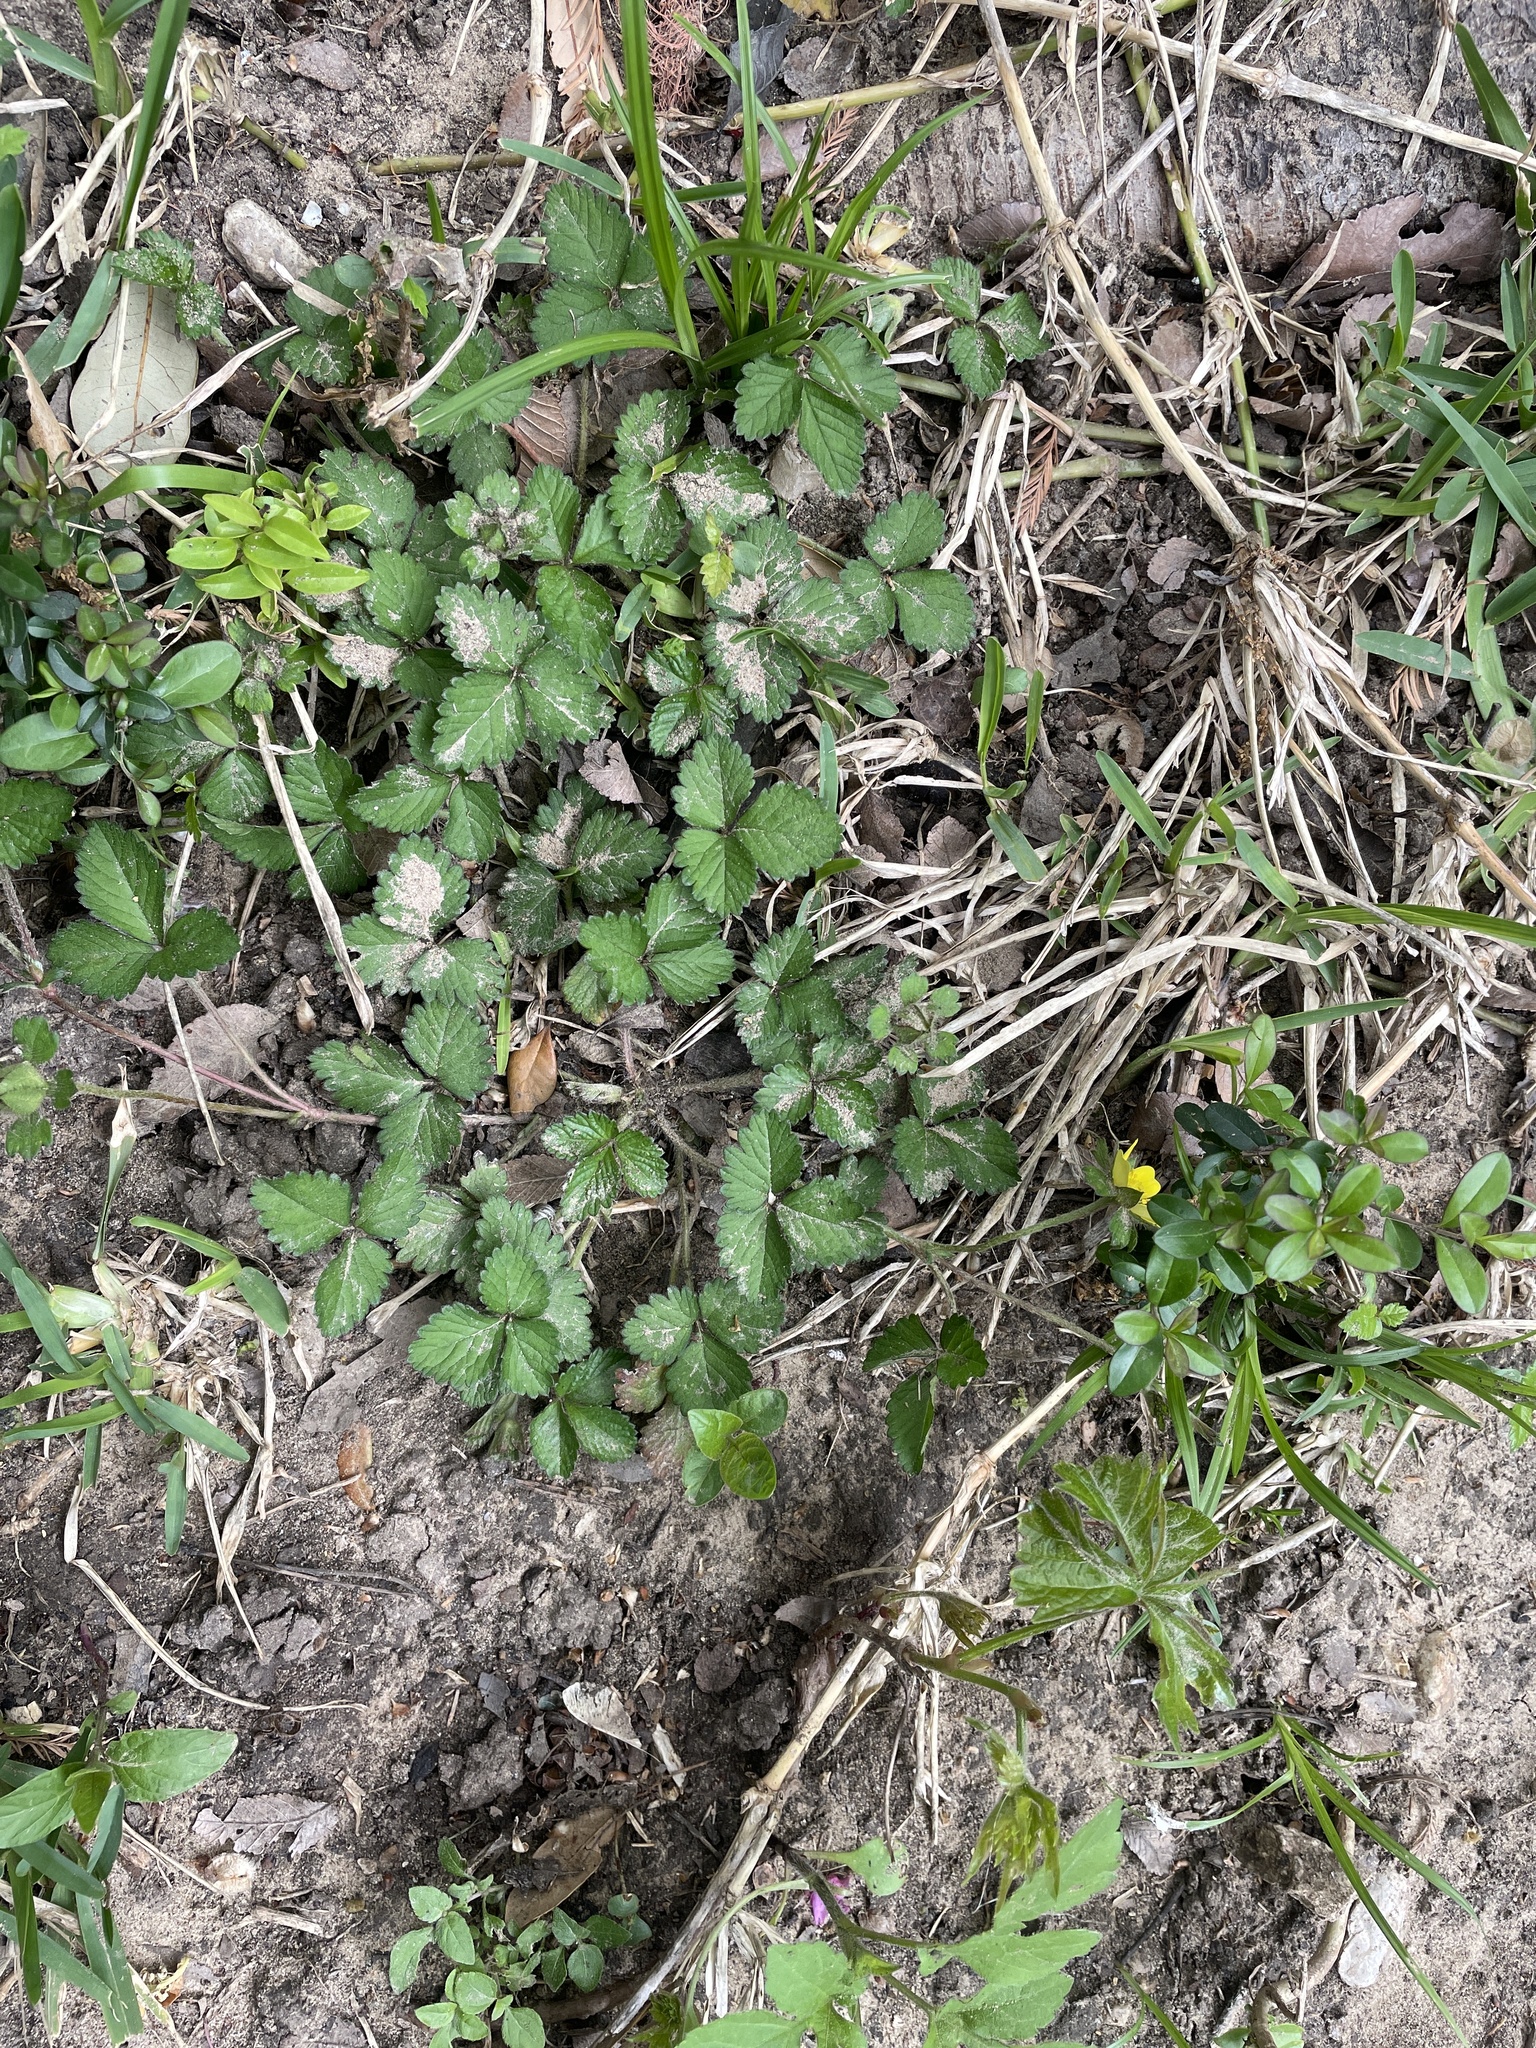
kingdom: Plantae
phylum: Tracheophyta
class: Magnoliopsida
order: Rosales
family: Rosaceae
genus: Potentilla
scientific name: Potentilla indica
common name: Yellow-flowered strawberry
